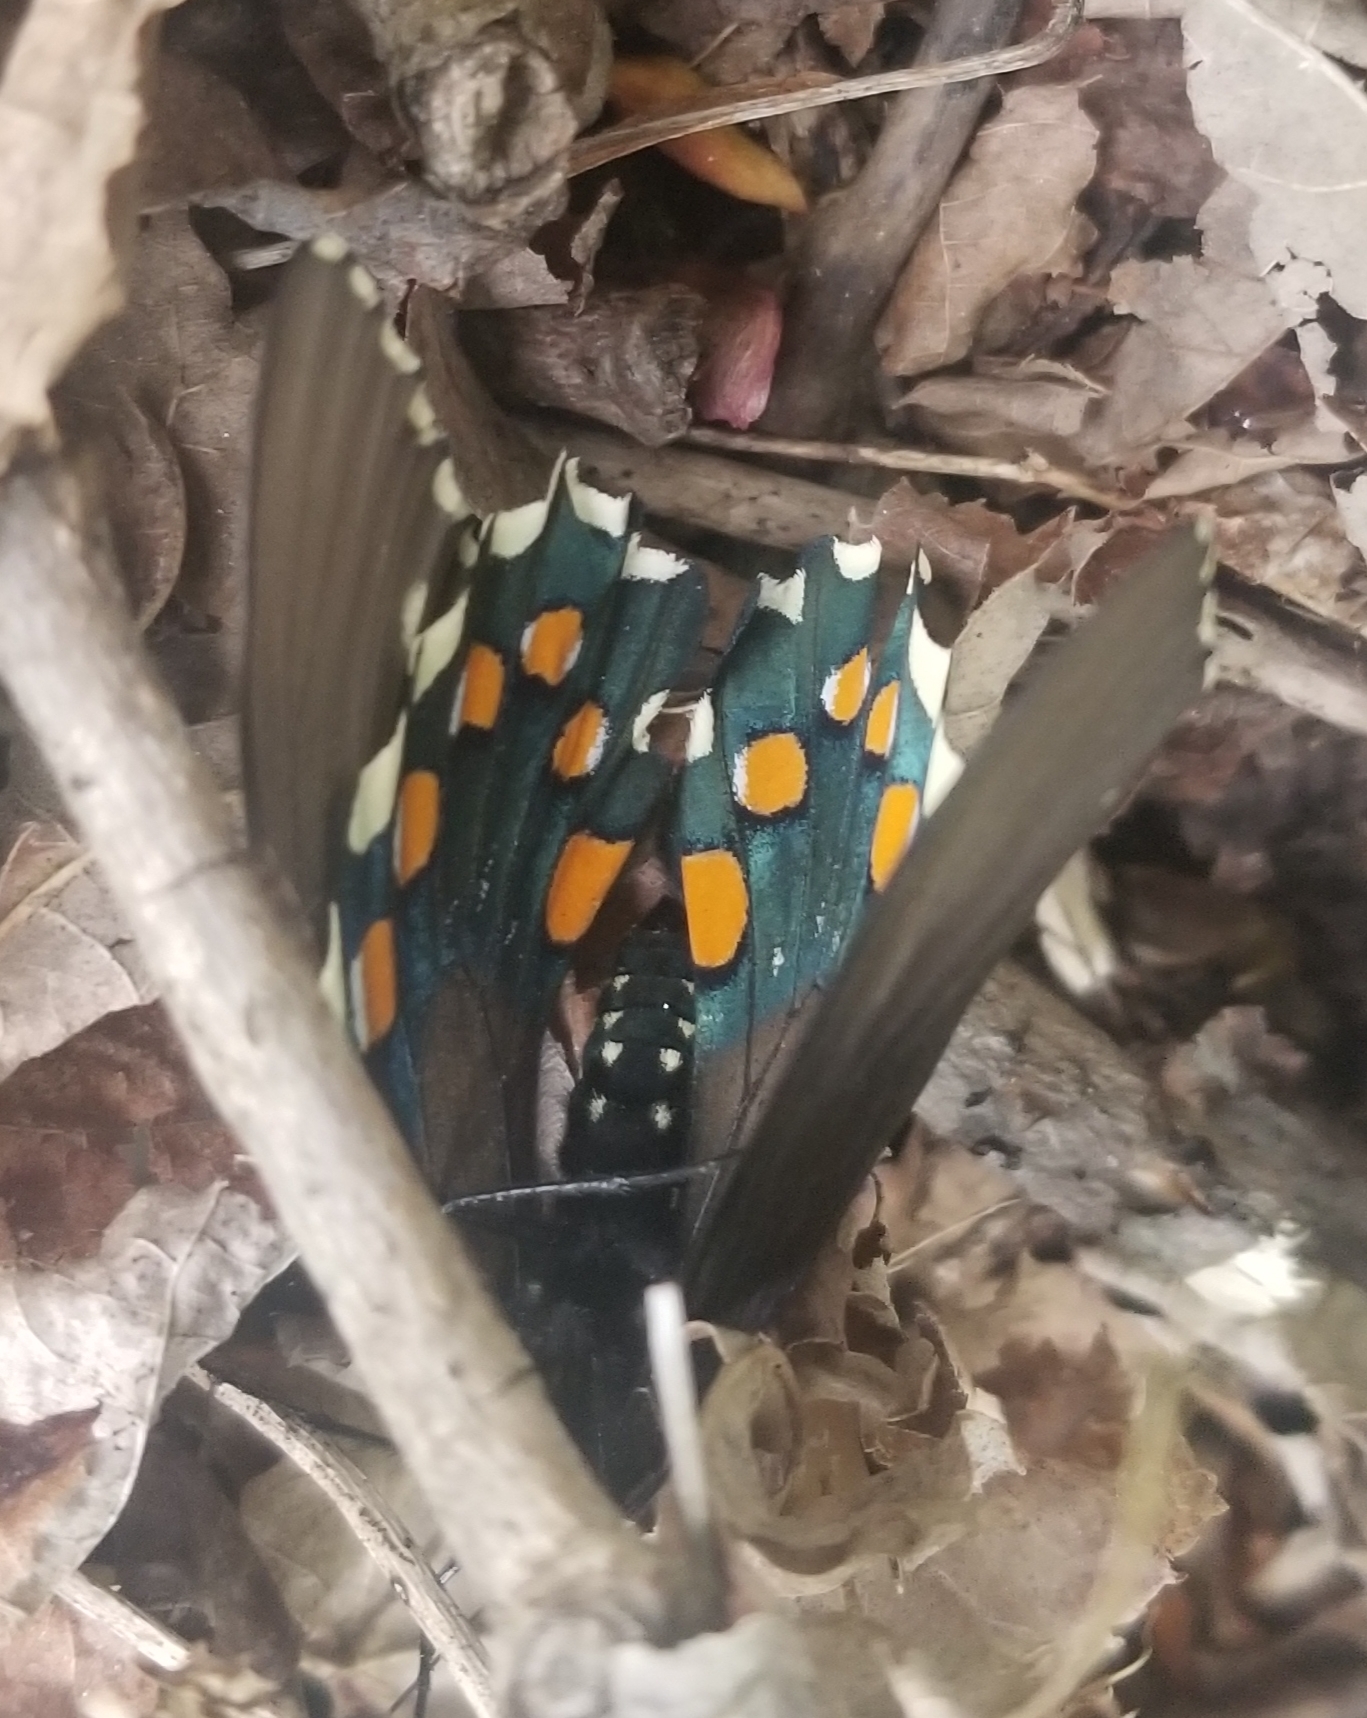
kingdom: Animalia
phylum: Arthropoda
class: Insecta
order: Lepidoptera
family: Papilionidae
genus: Battus
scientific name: Battus philenor
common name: Pipevine swallowtail
